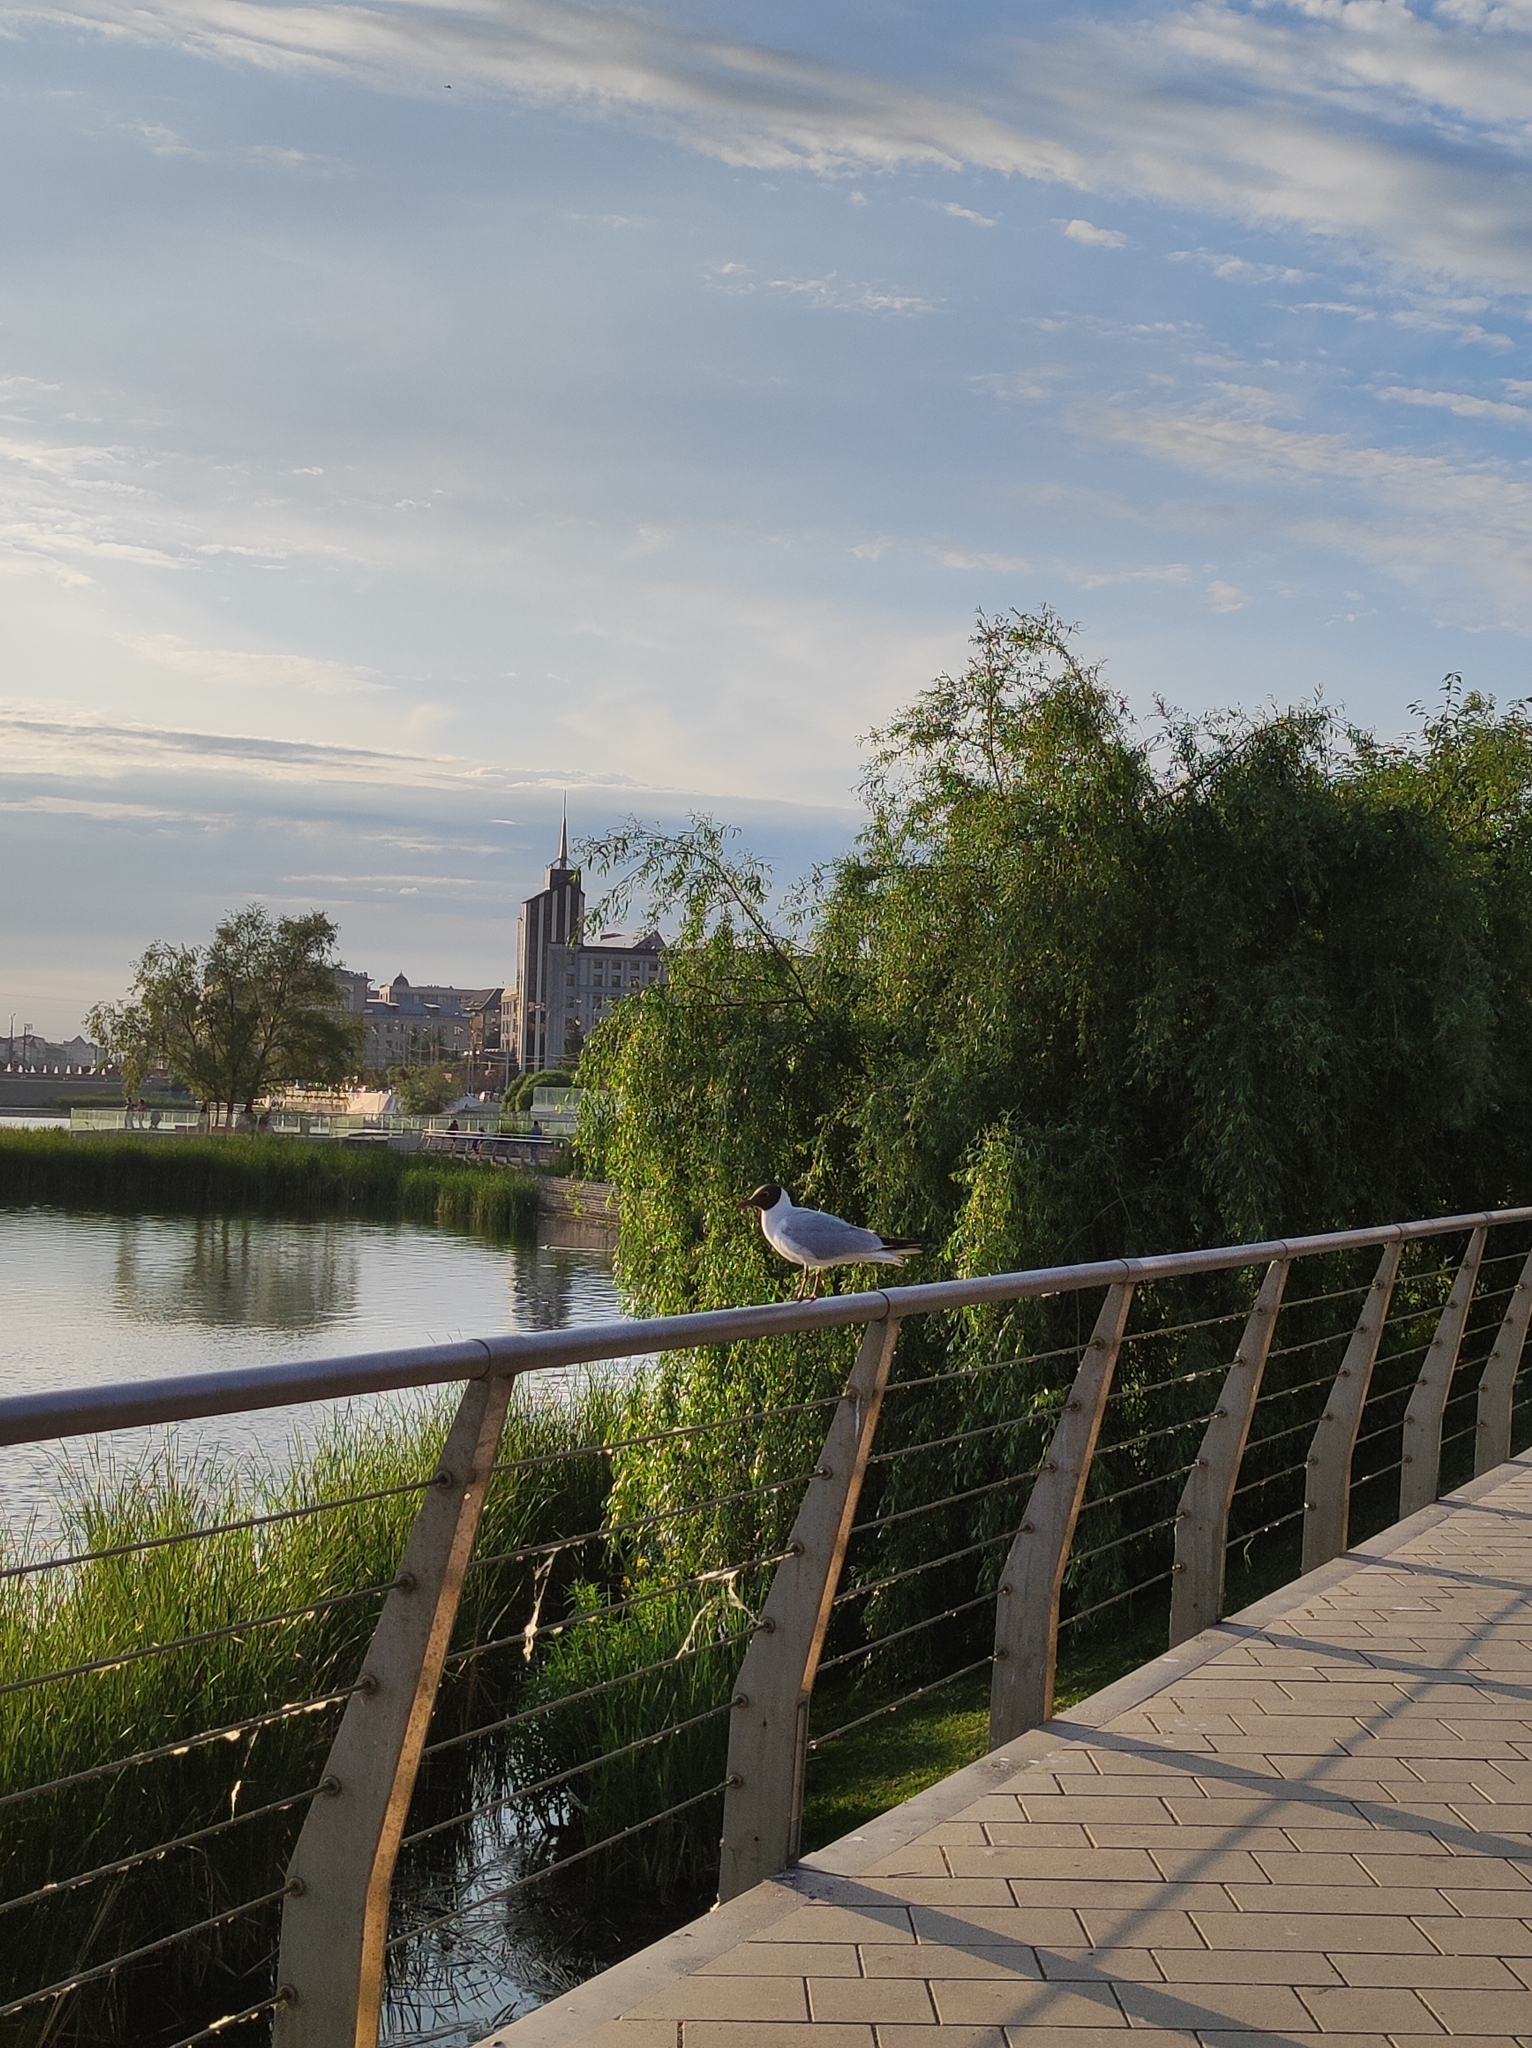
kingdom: Animalia
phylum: Chordata
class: Aves
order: Charadriiformes
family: Laridae
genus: Chroicocephalus
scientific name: Chroicocephalus ridibundus
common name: Black-headed gull
